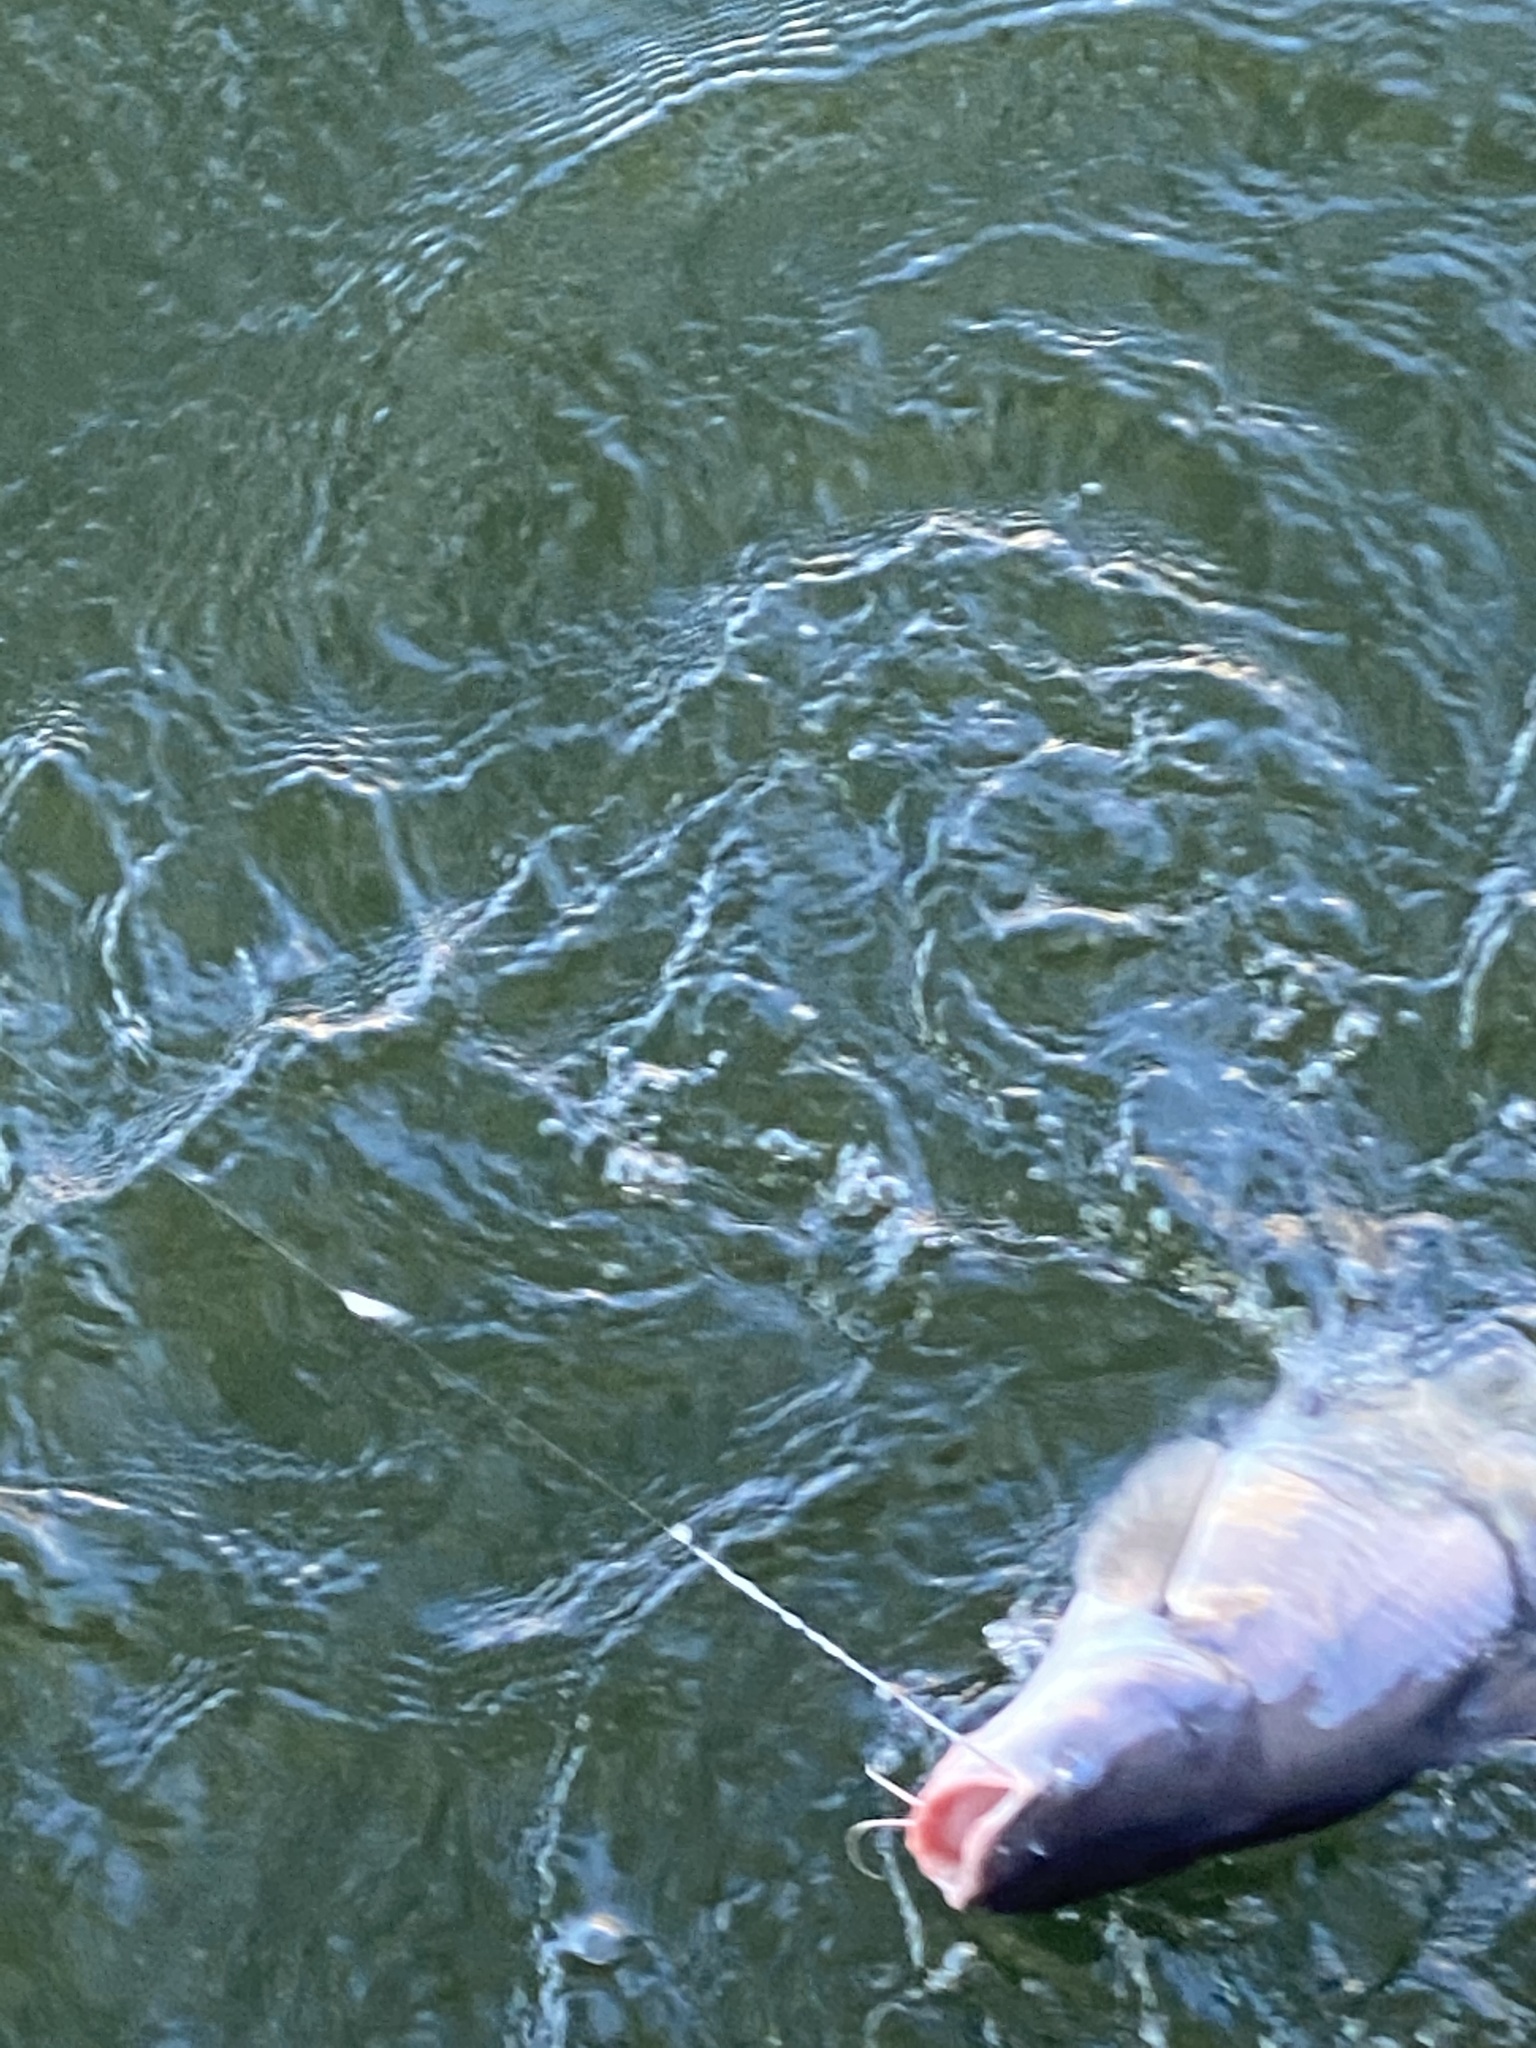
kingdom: Animalia
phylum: Chordata
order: Siluriformes
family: Ictaluridae
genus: Ictalurus
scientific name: Ictalurus furcatus
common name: Blue catfish
